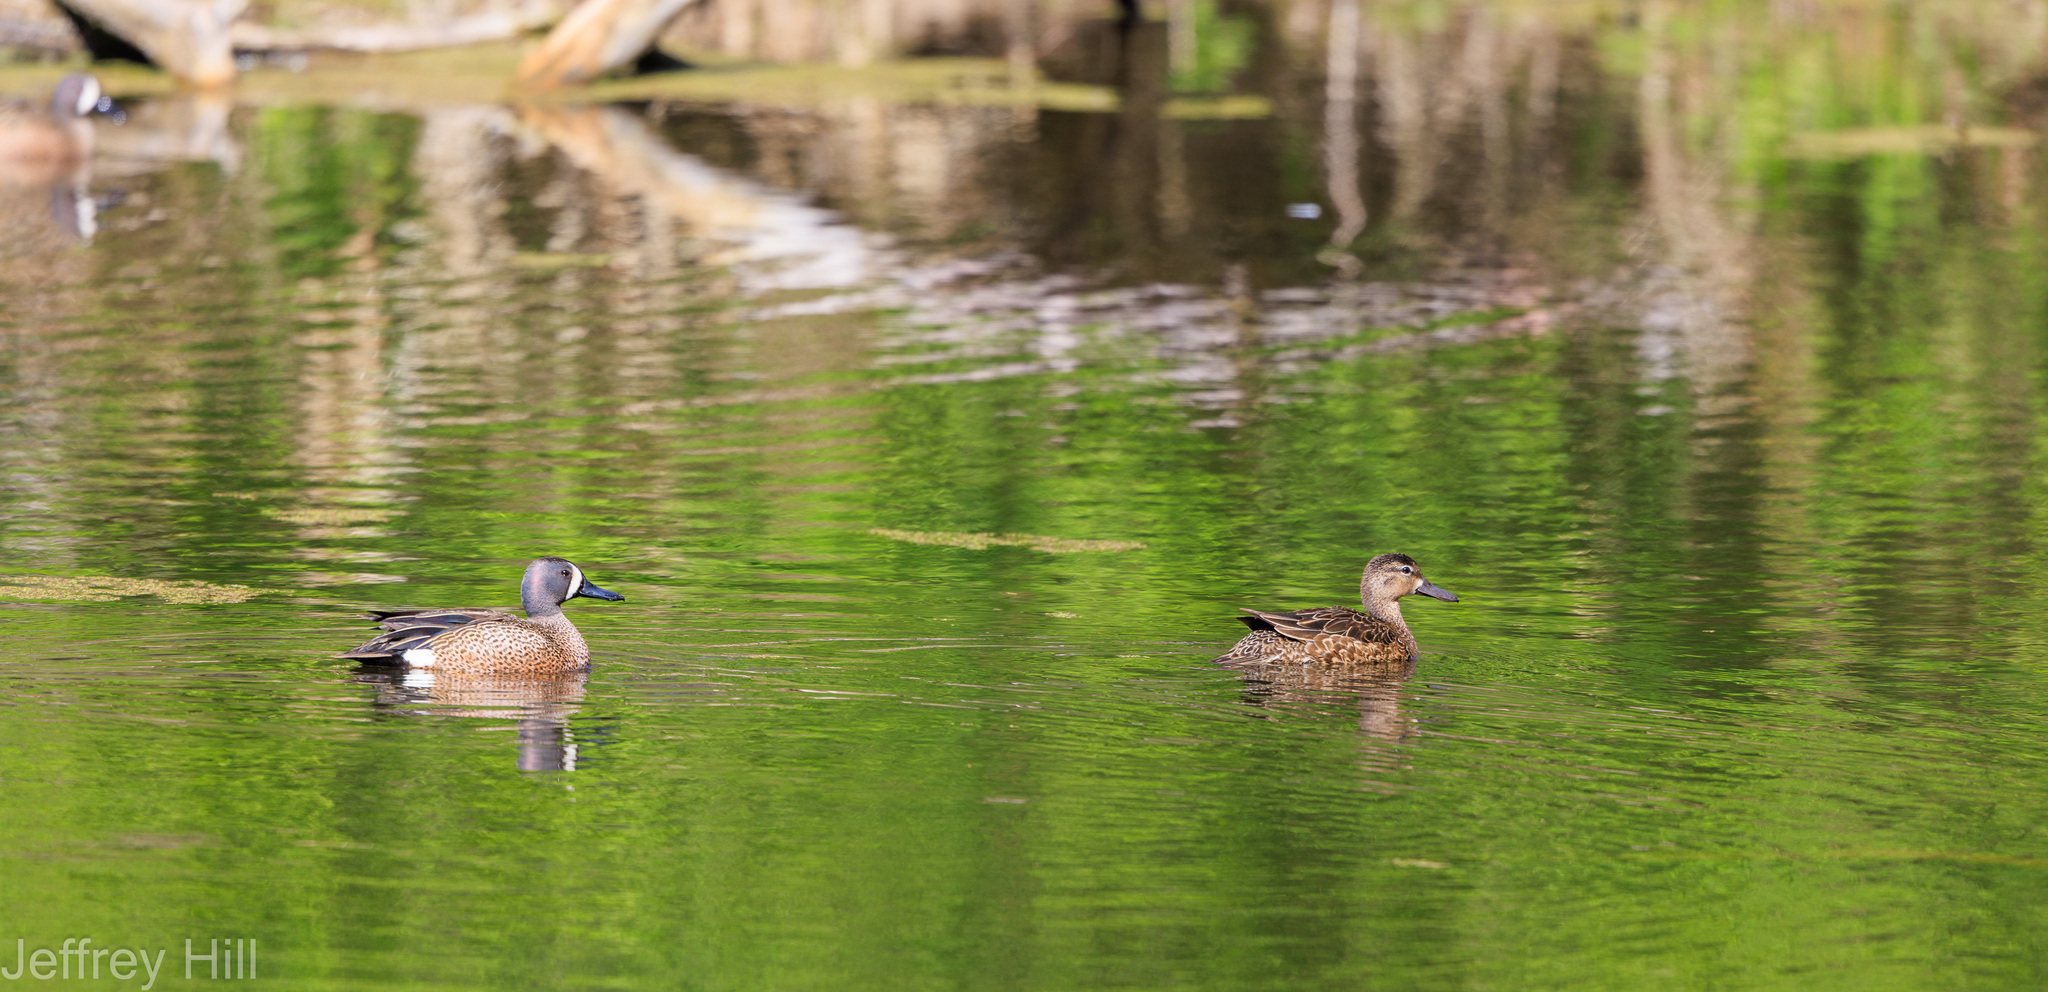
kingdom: Animalia
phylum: Chordata
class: Aves
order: Anseriformes
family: Anatidae
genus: Spatula
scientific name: Spatula discors
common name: Blue-winged teal
